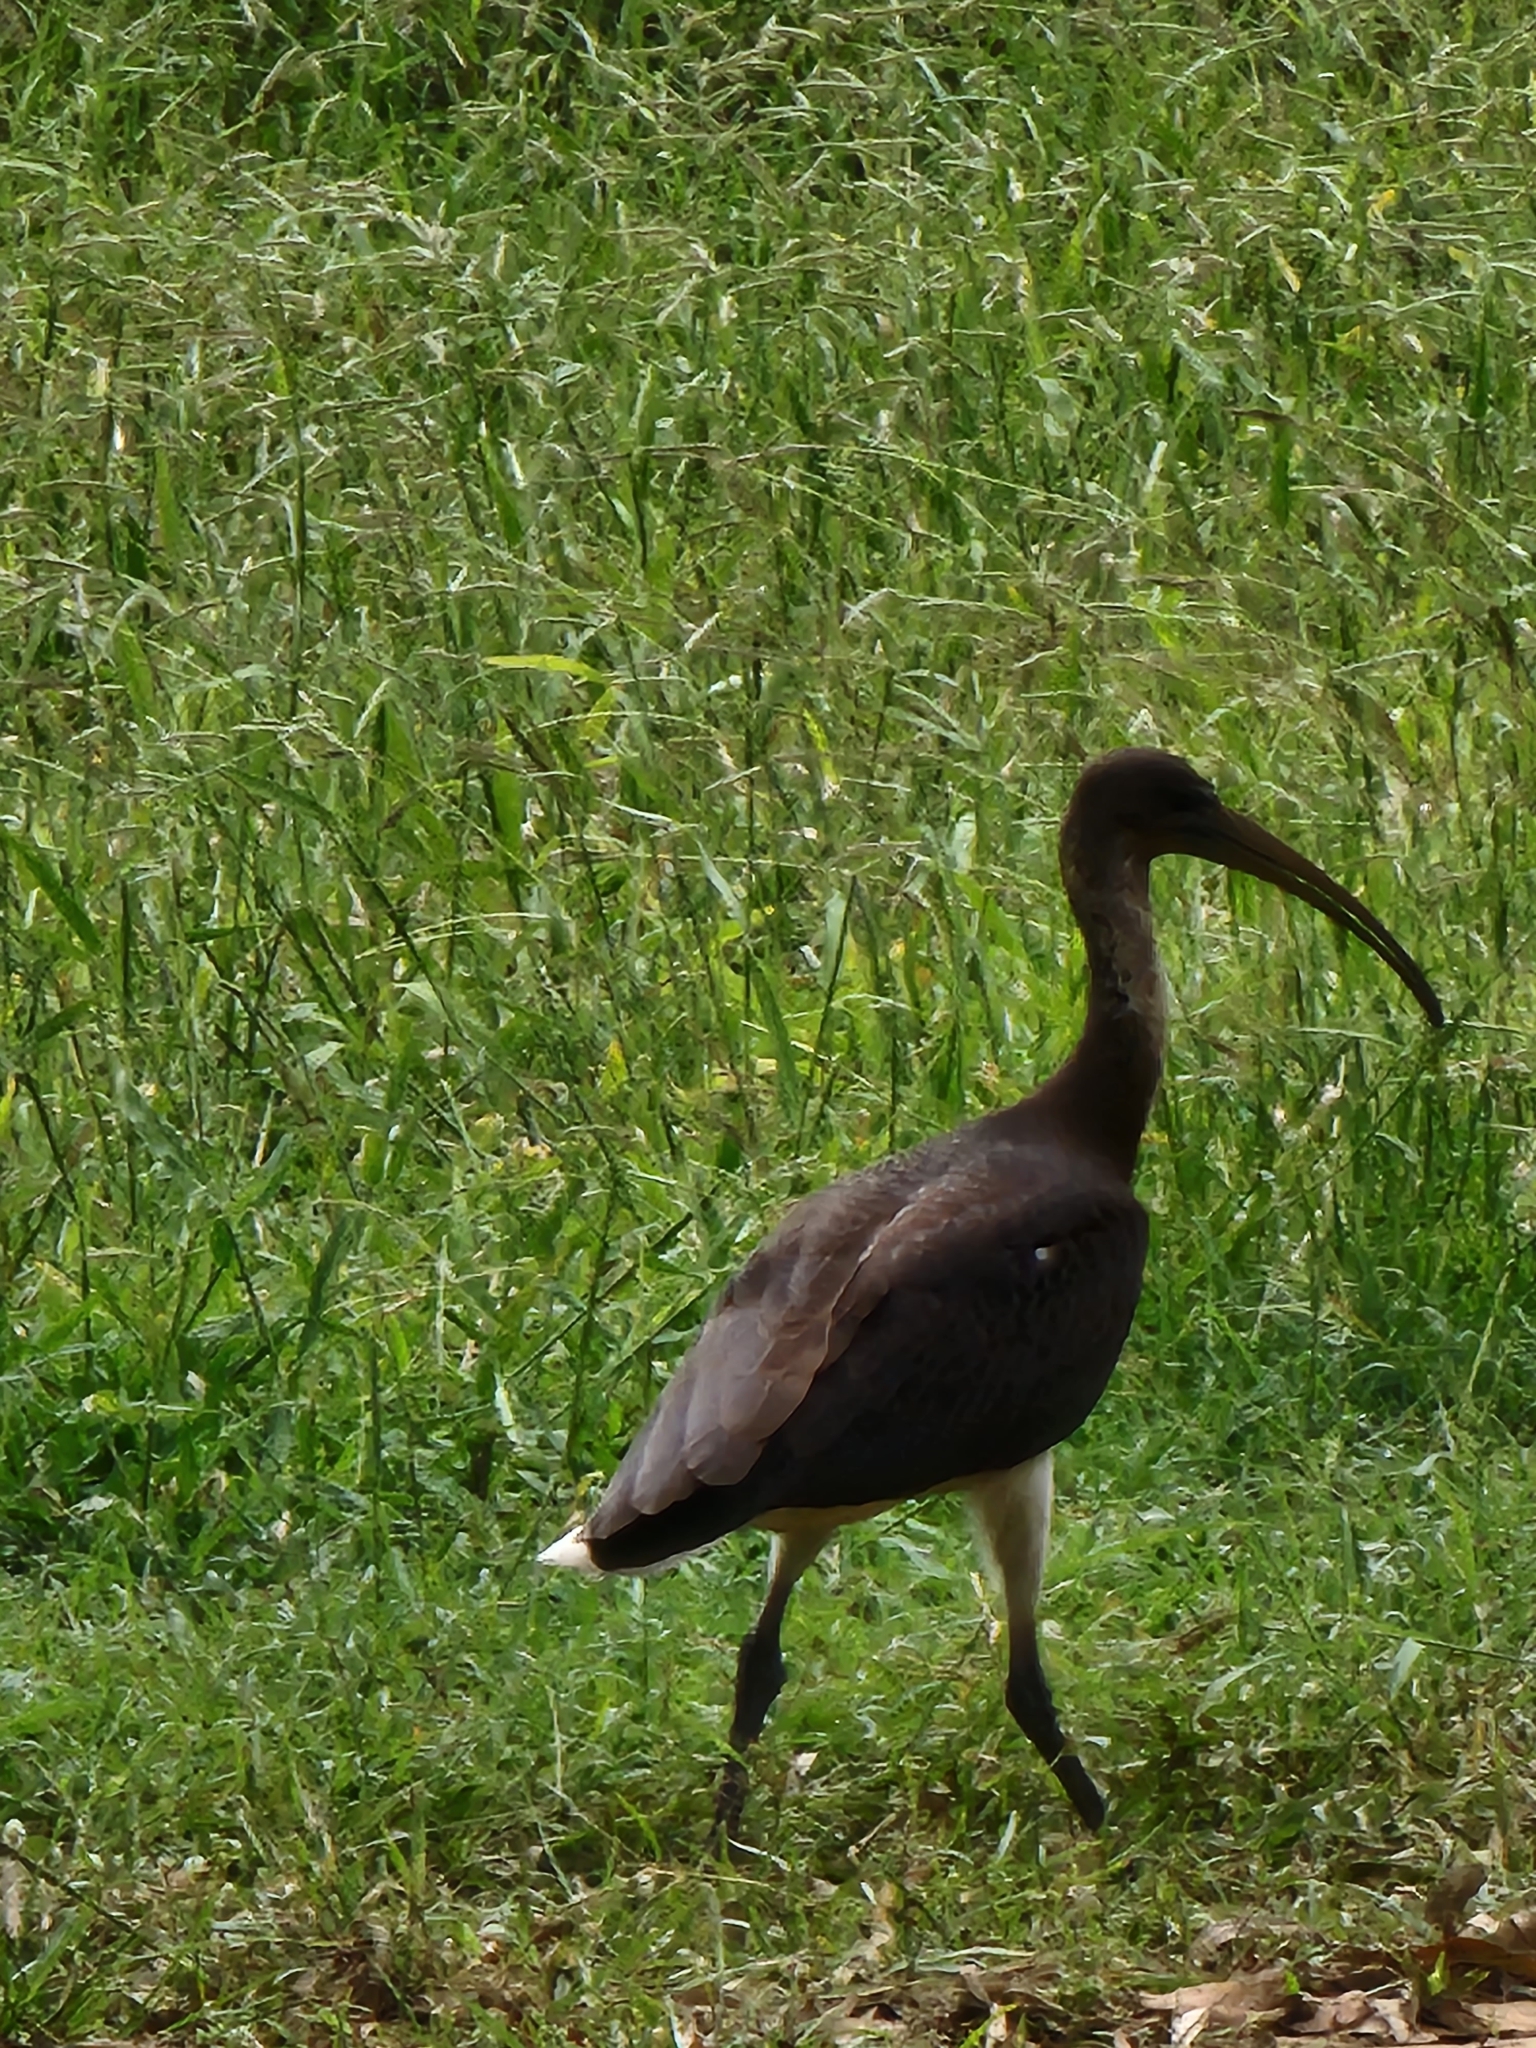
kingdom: Animalia
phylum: Chordata
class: Aves
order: Pelecaniformes
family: Threskiornithidae
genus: Threskiornis
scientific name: Threskiornis spinicollis
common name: Straw-necked ibis
